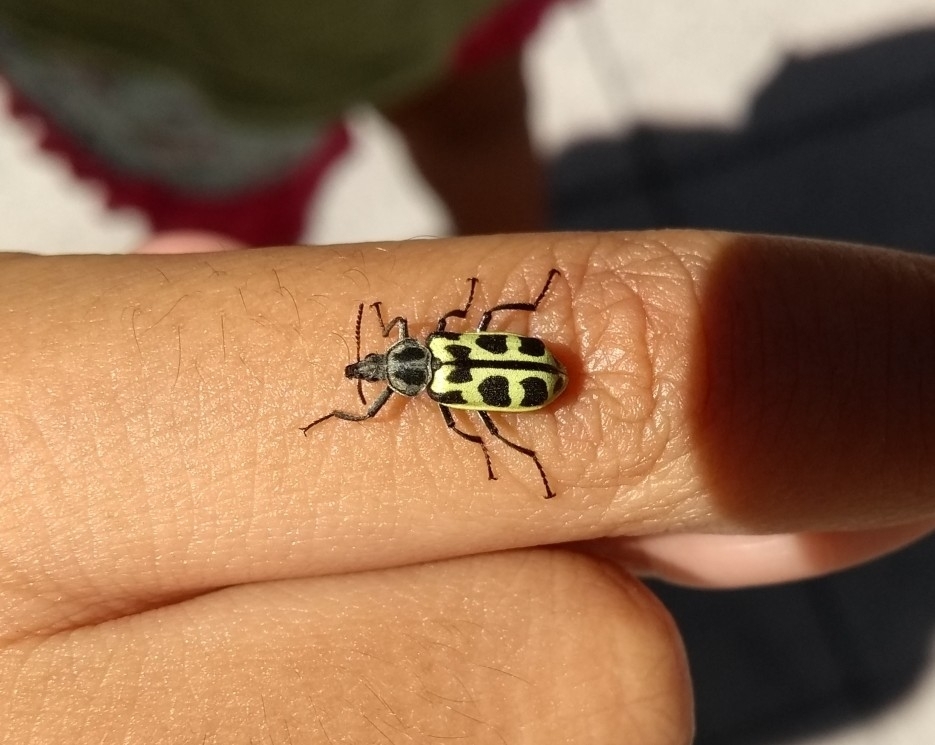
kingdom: Animalia
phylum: Arthropoda
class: Insecta
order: Coleoptera
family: Melyridae
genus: Astylus
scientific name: Astylus atromaculatus
